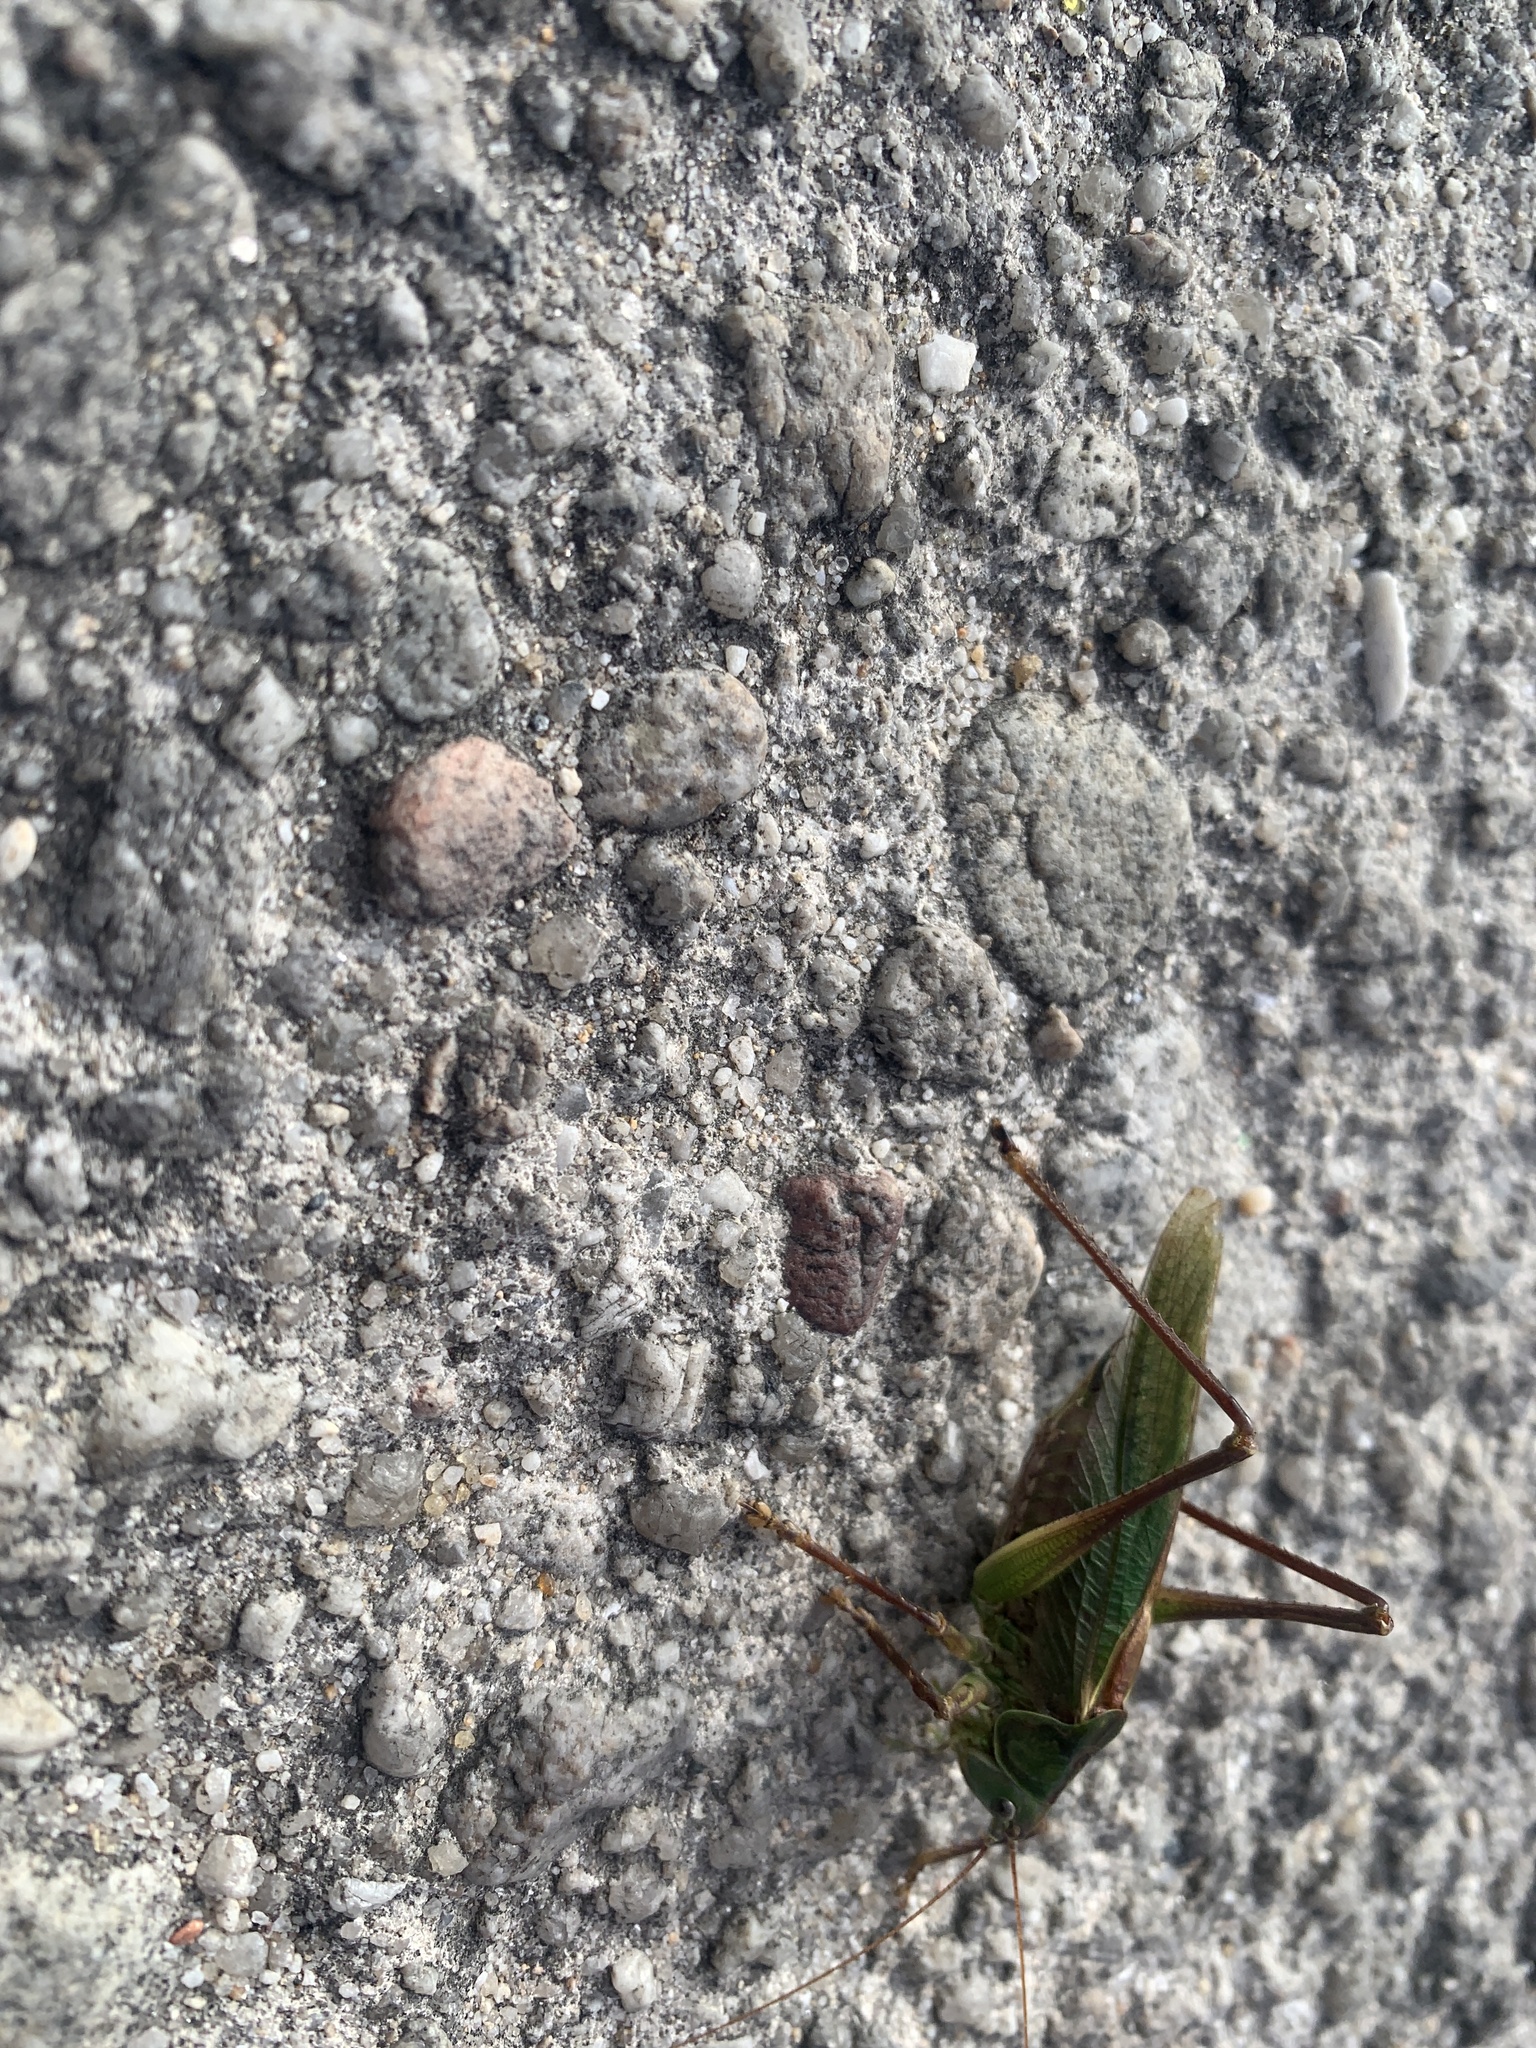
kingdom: Animalia
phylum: Arthropoda
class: Insecta
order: Orthoptera
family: Tettigoniidae
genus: Tettigonia
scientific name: Tettigonia viridissima
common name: Great green bush-cricket
